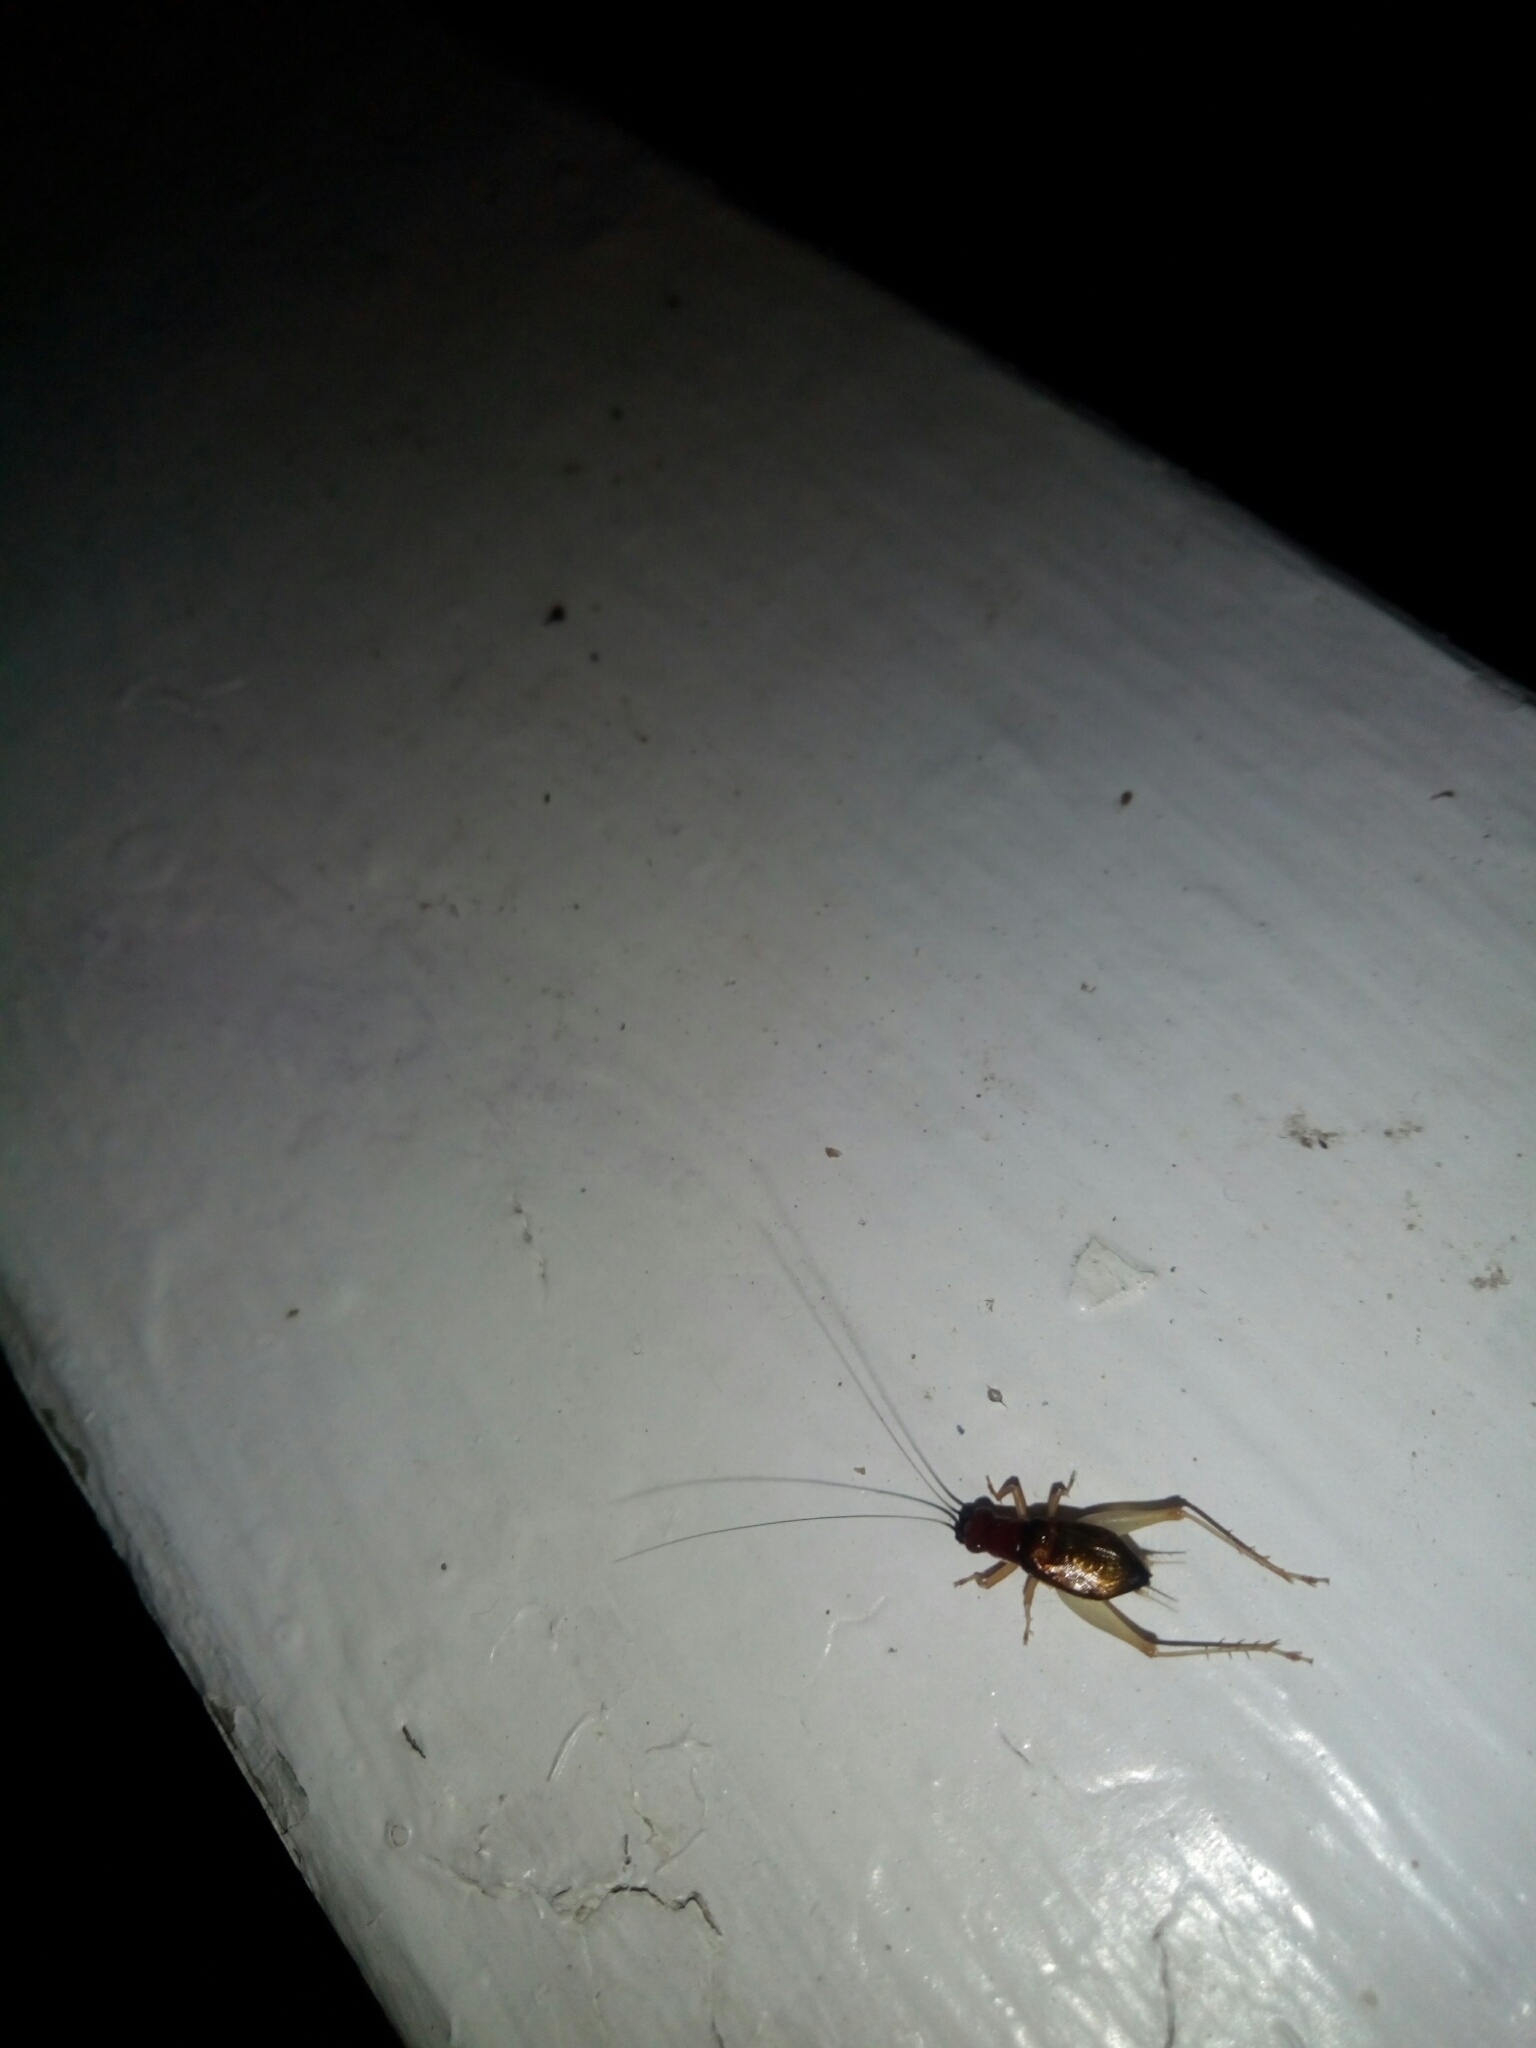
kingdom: Animalia
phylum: Arthropoda
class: Insecta
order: Orthoptera
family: Trigonidiidae
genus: Phyllopalpus
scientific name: Phyllopalpus pulchellus
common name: Handsome trig
